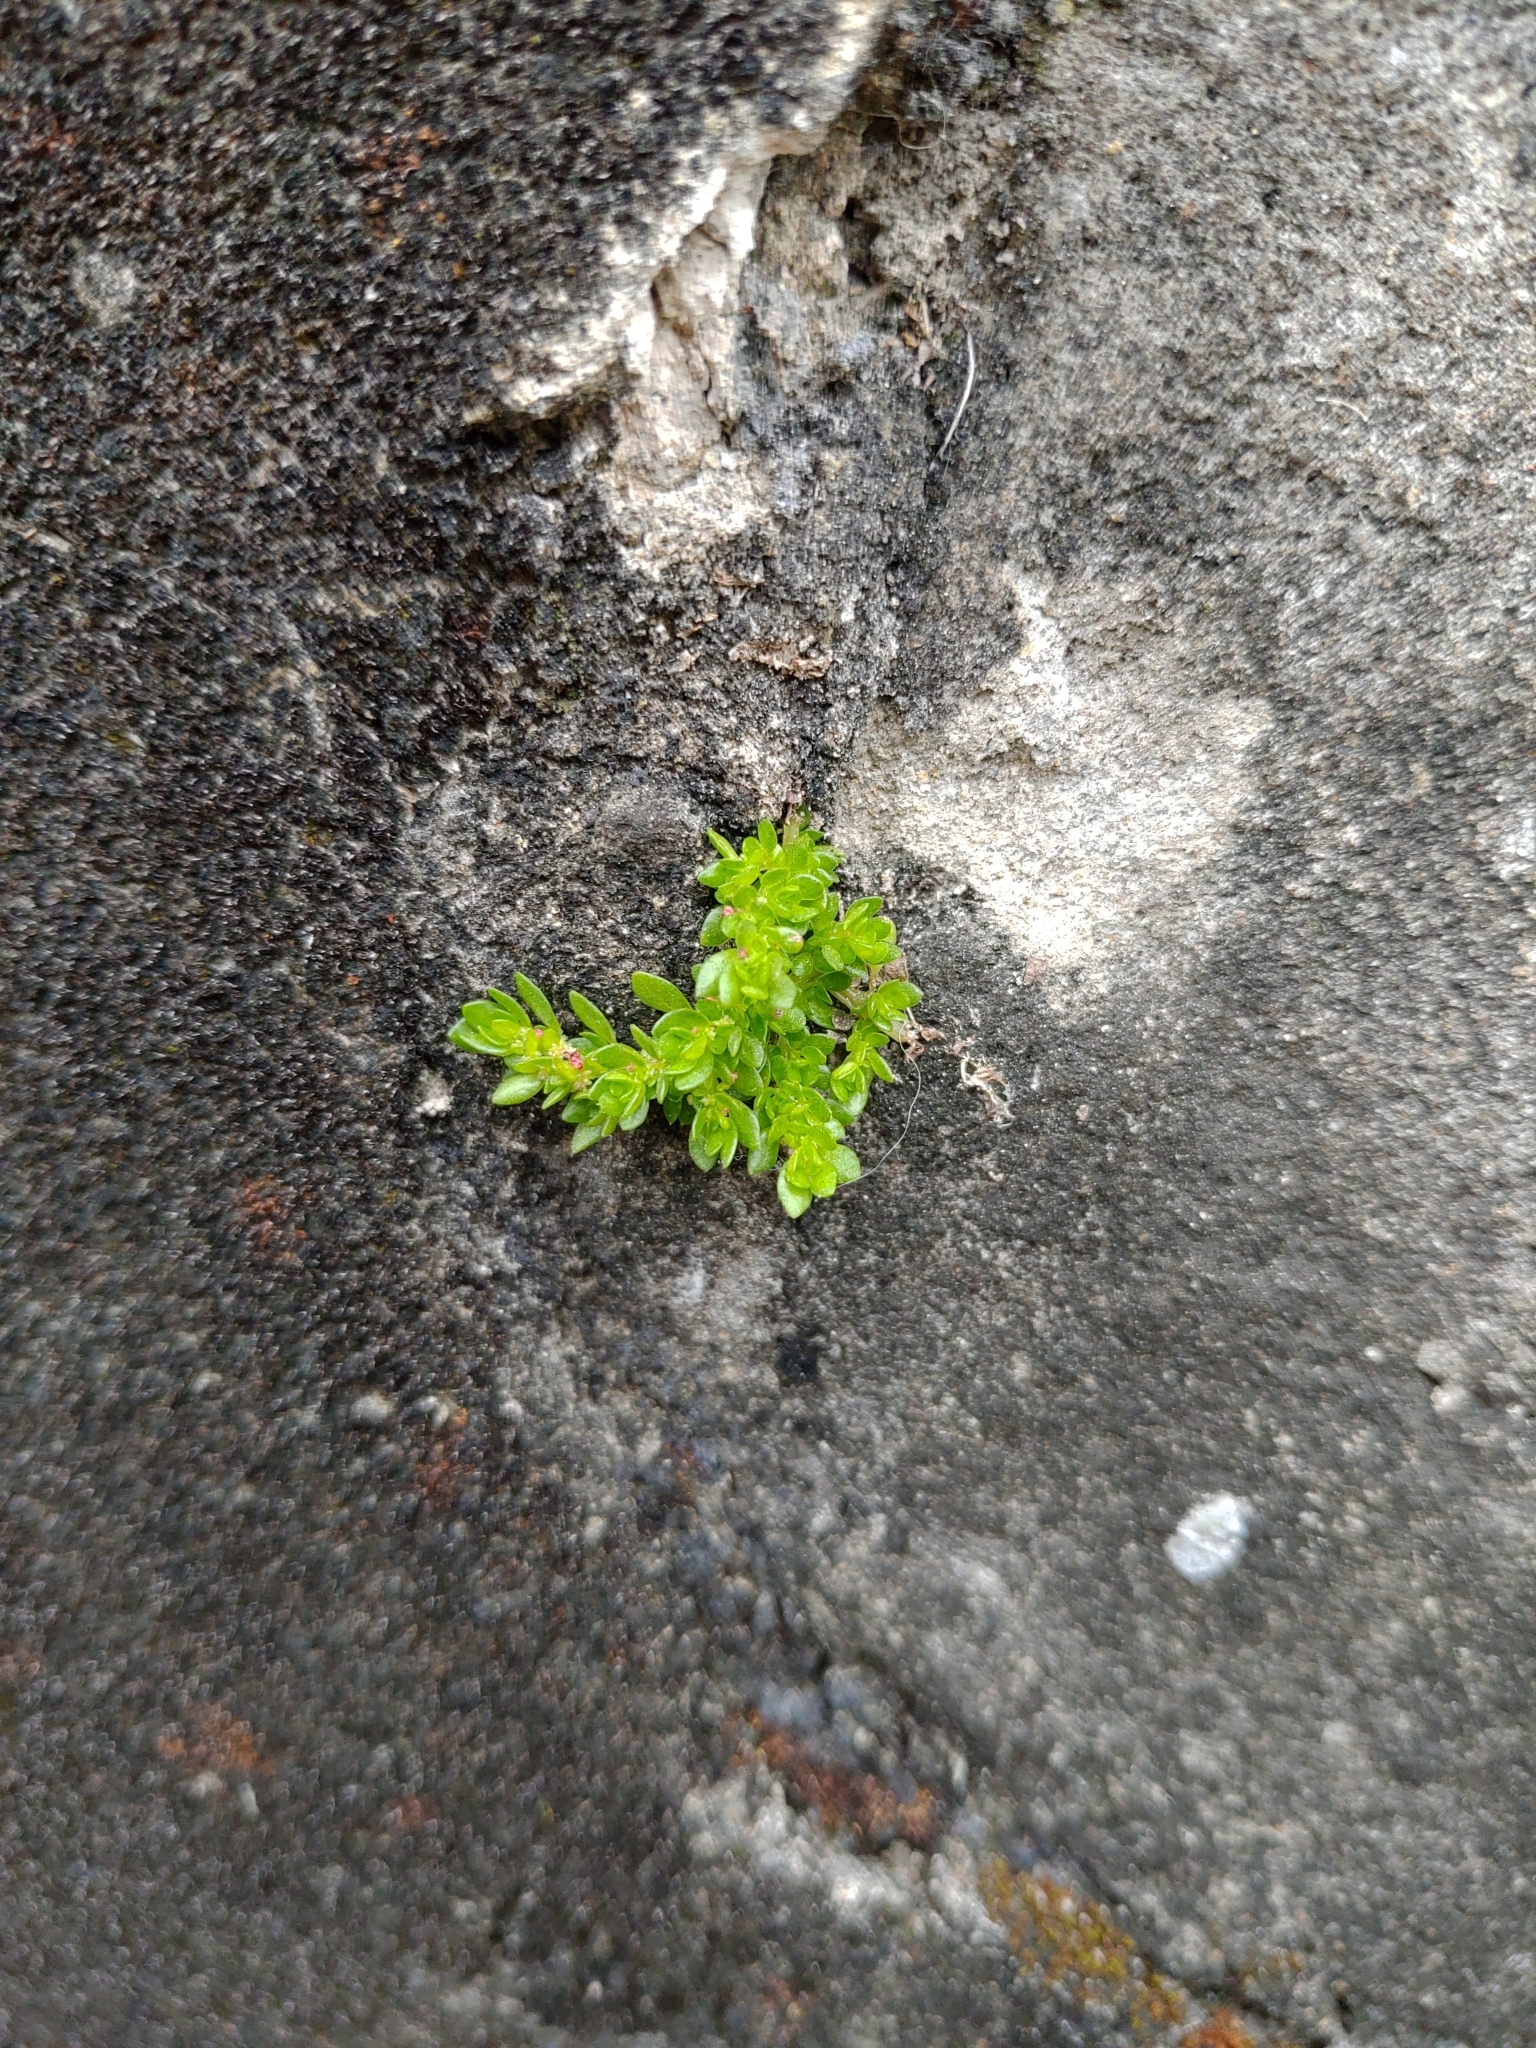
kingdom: Plantae
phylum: Tracheophyta
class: Magnoliopsida
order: Rosales
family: Urticaceae
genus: Pilea
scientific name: Pilea microphylla
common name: Artillery-plant
